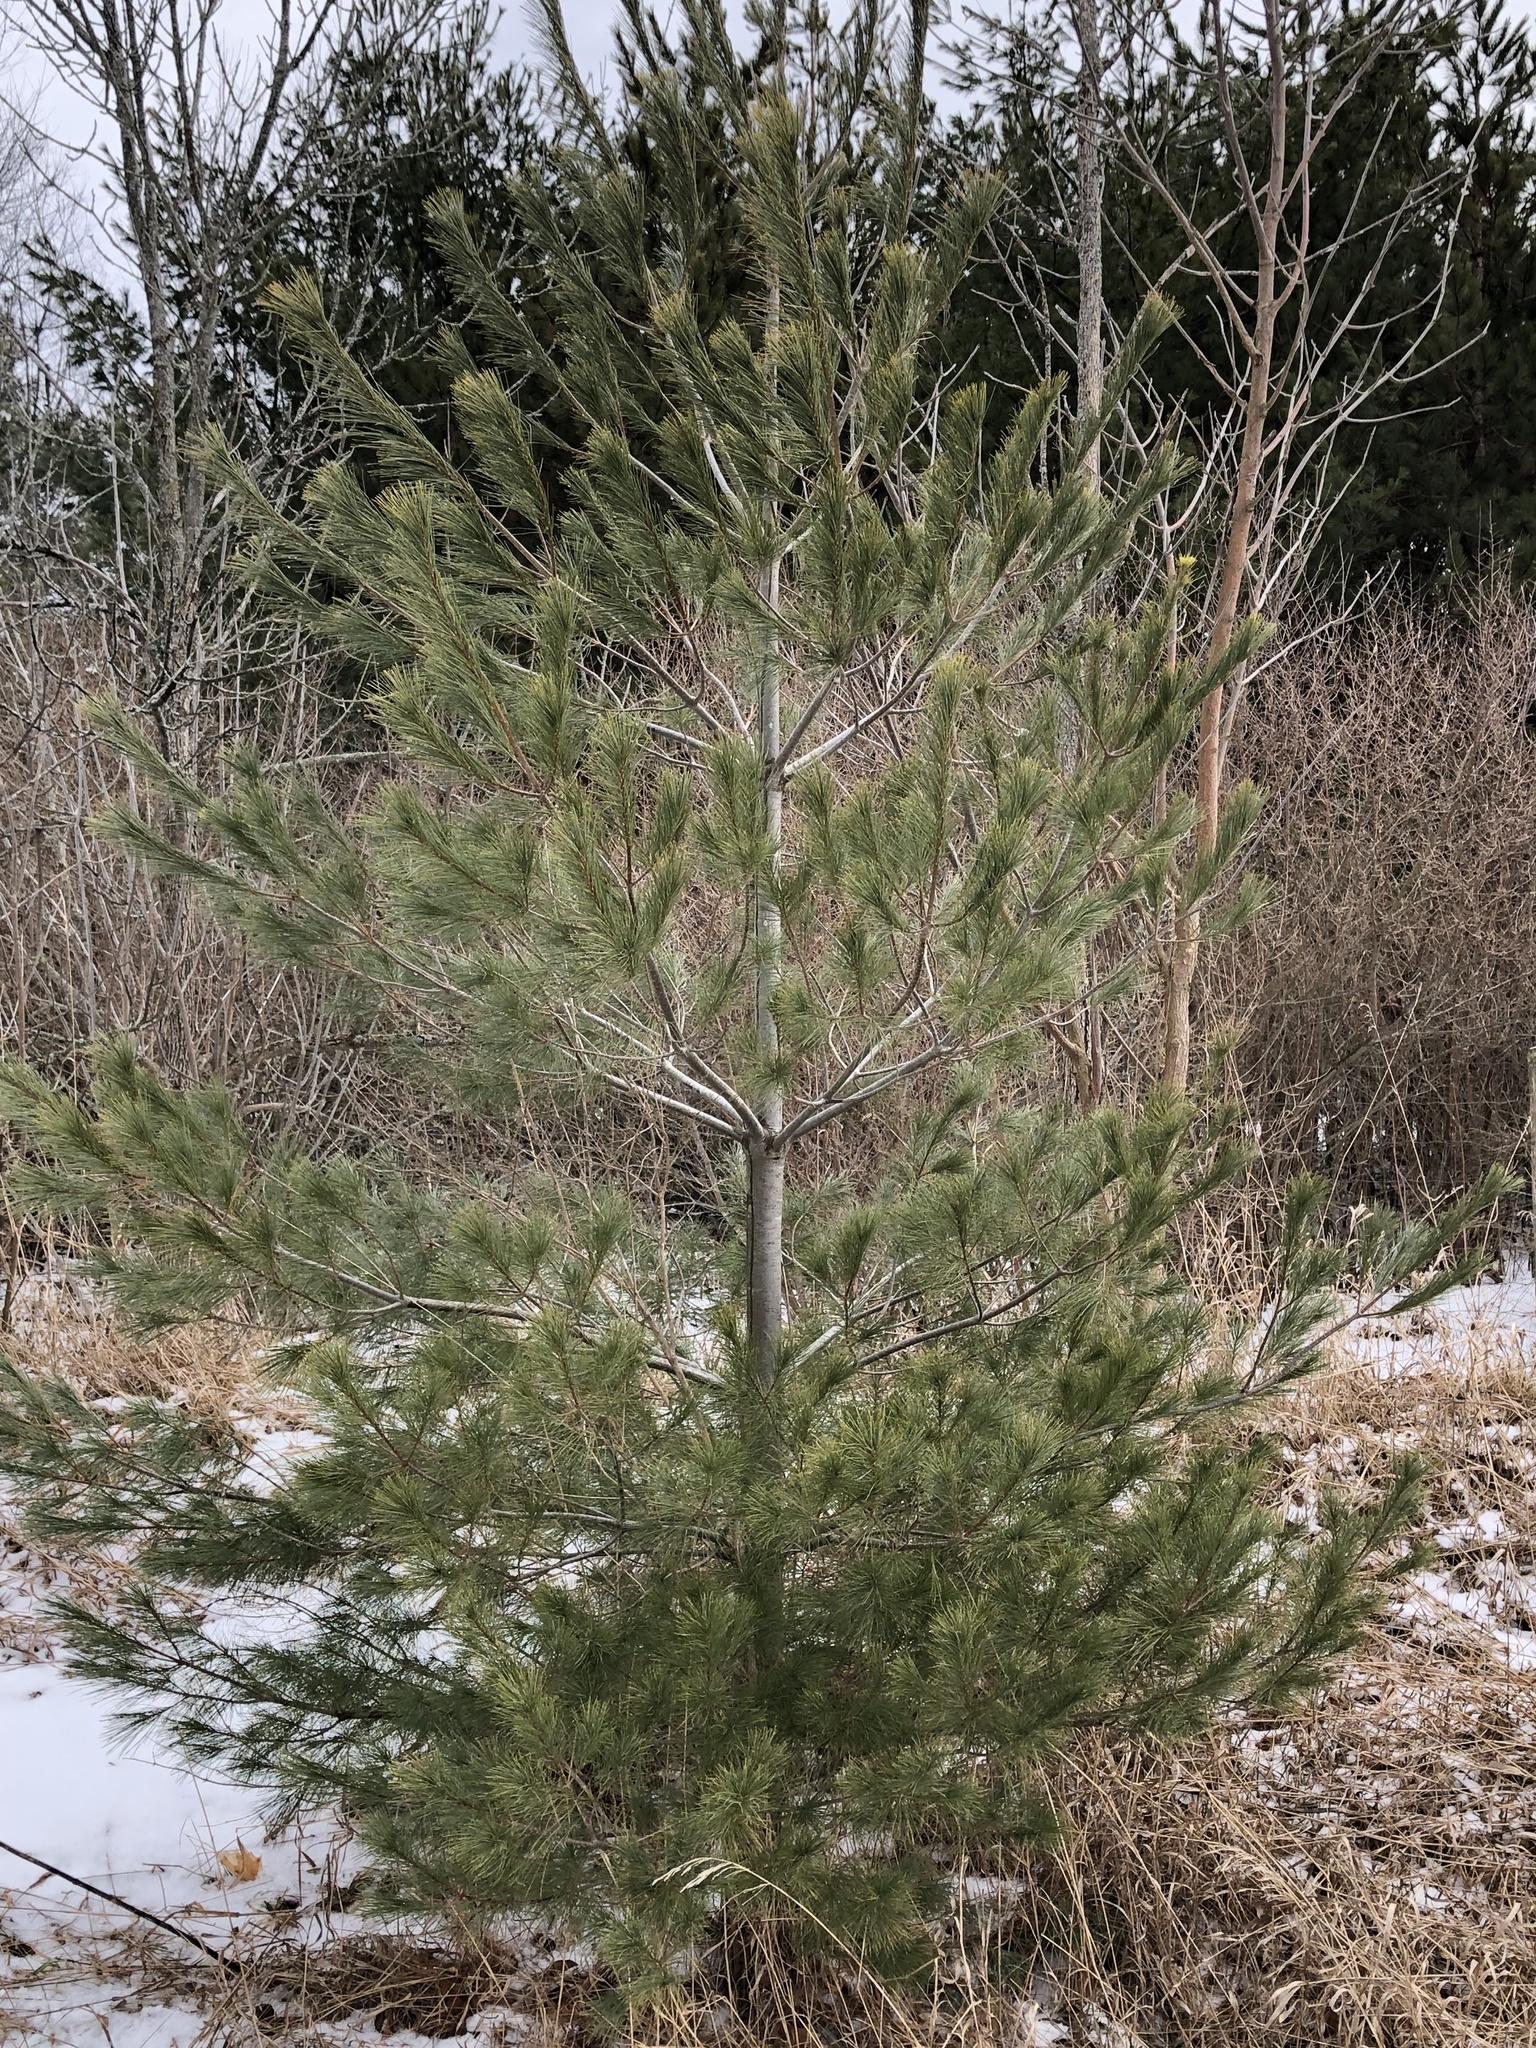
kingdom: Plantae
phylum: Tracheophyta
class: Pinopsida
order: Pinales
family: Pinaceae
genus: Pinus
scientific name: Pinus strobus
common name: Weymouth pine
